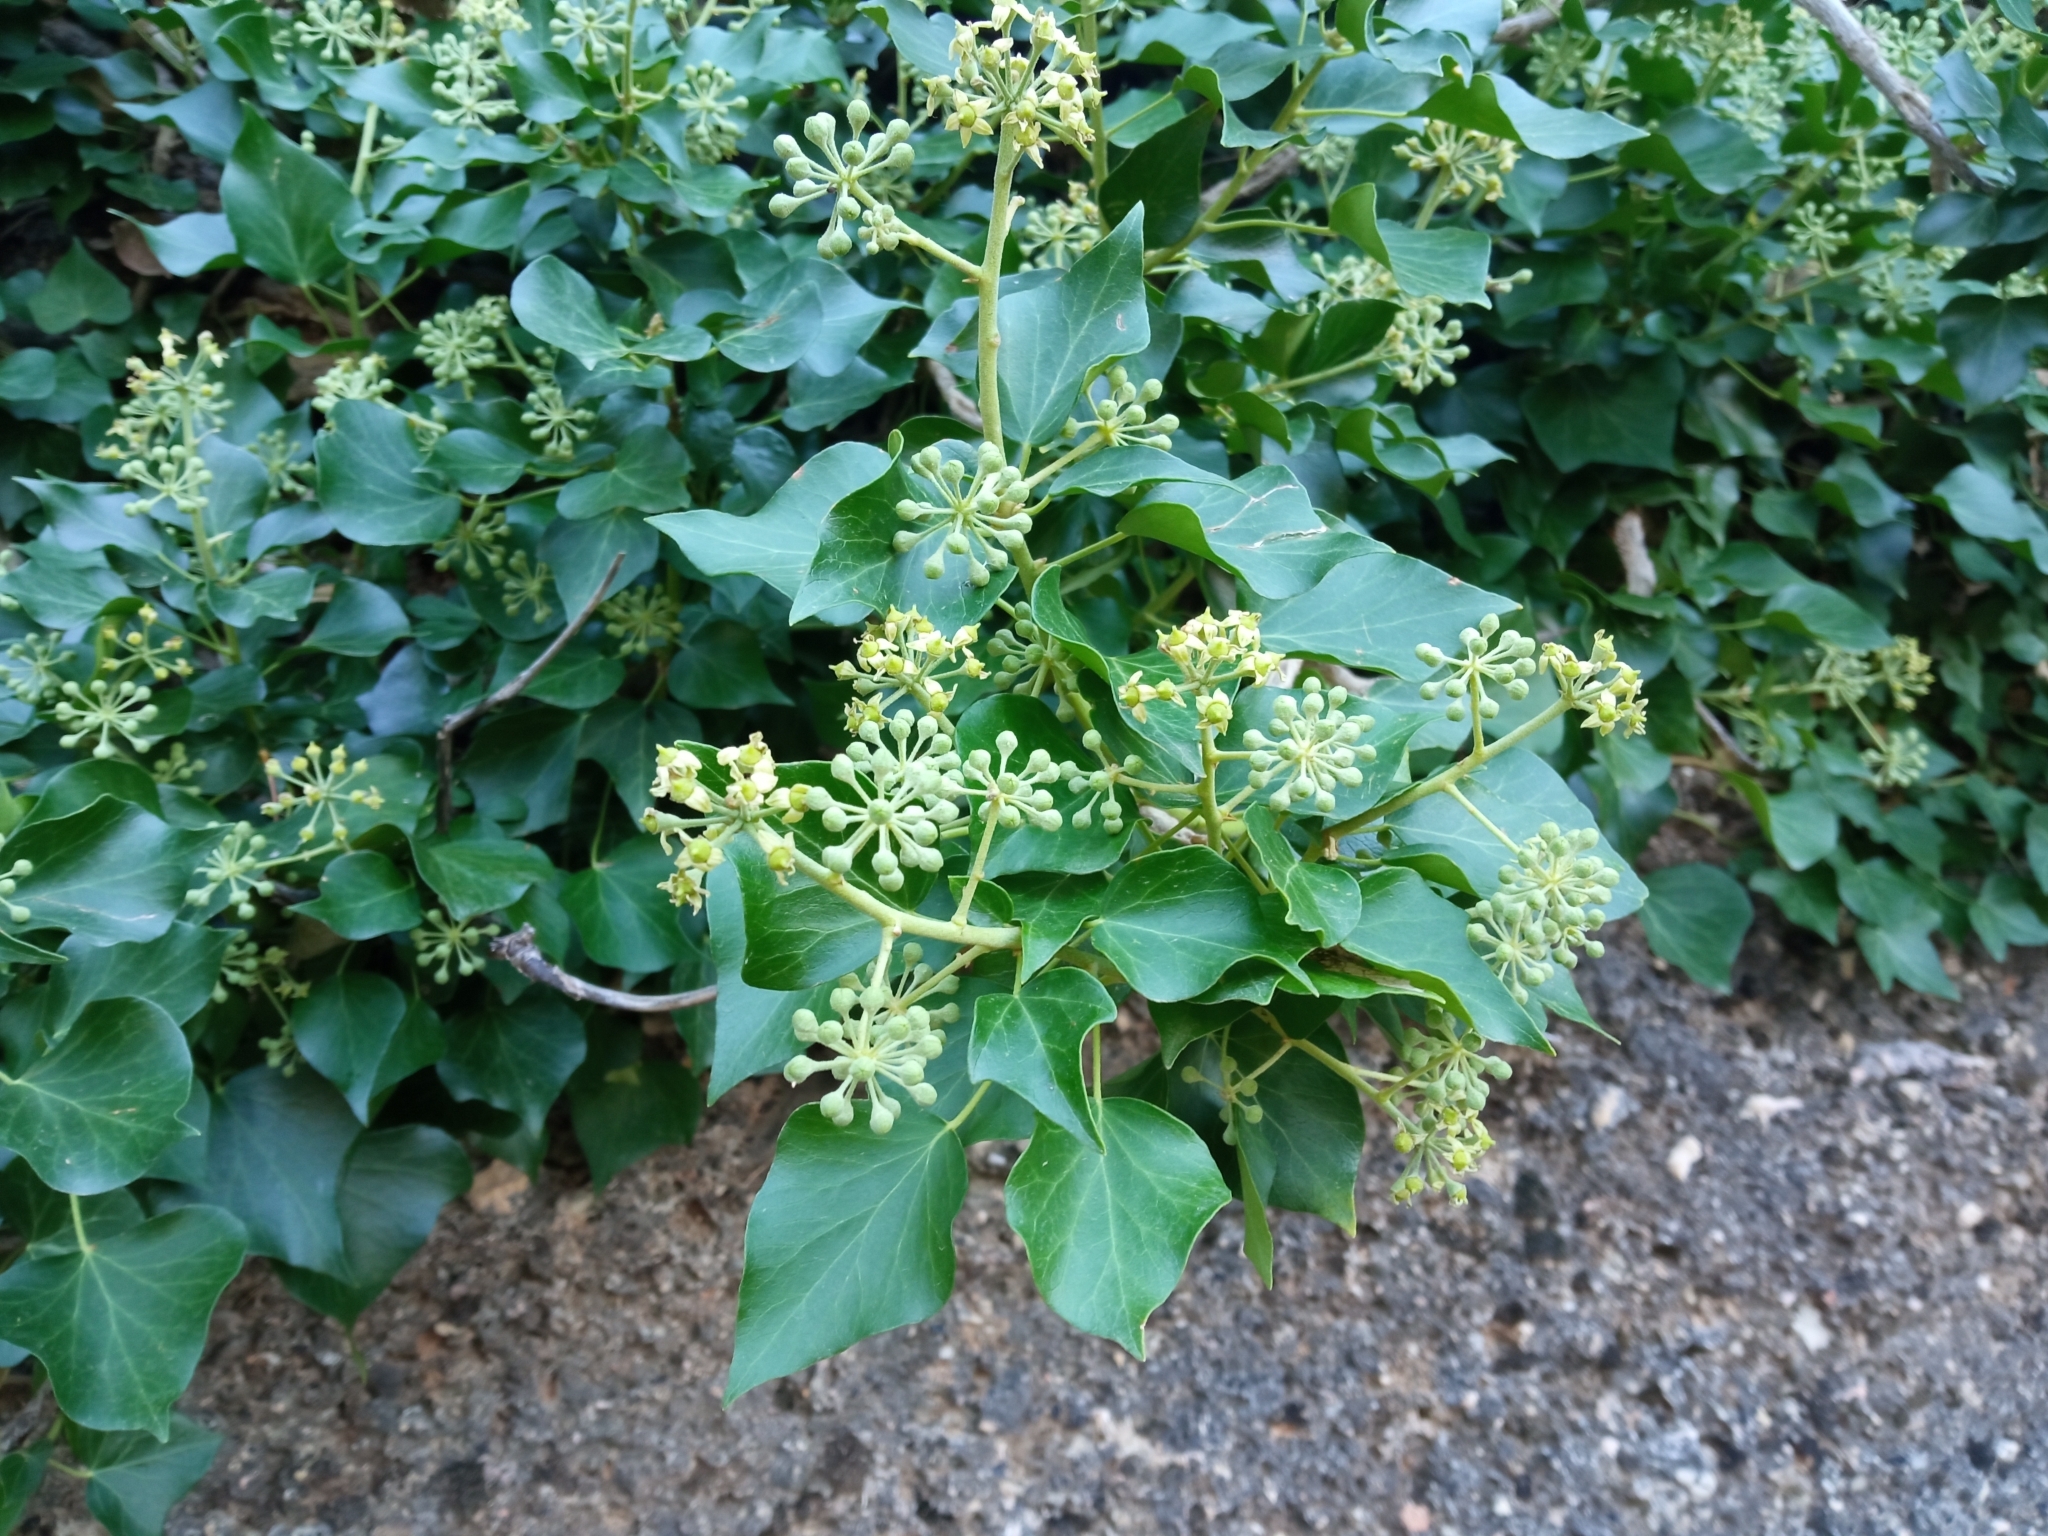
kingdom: Plantae
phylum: Tracheophyta
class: Magnoliopsida
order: Apiales
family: Araliaceae
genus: Hedera
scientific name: Hedera helix
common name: Ivy
